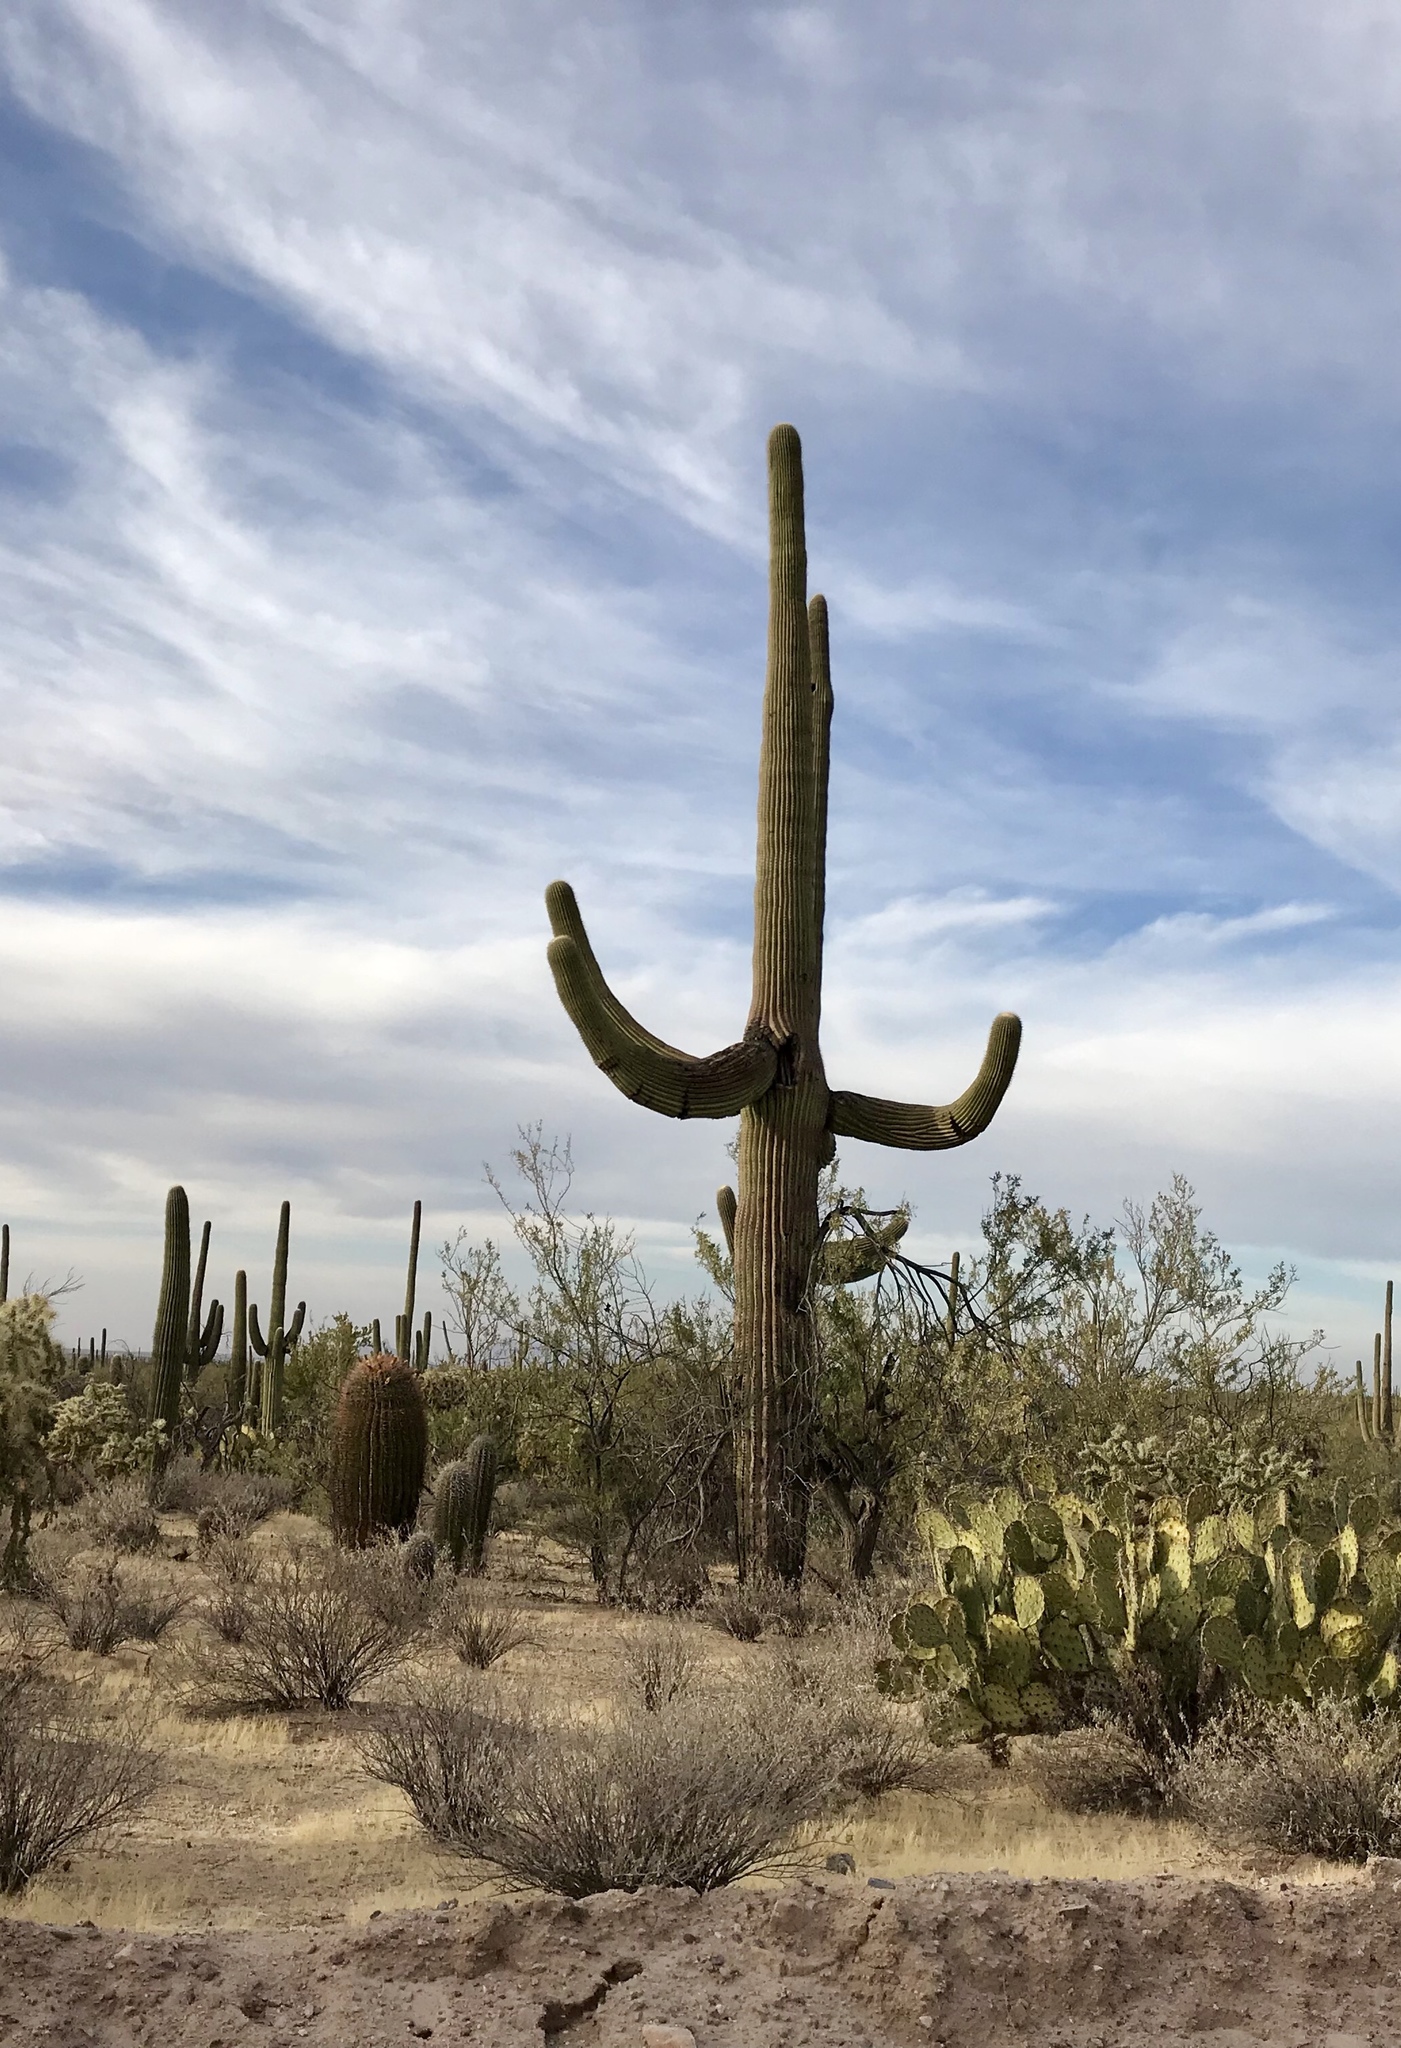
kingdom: Plantae
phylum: Tracheophyta
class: Magnoliopsida
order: Caryophyllales
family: Cactaceae
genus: Carnegiea
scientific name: Carnegiea gigantea
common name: Saguaro
